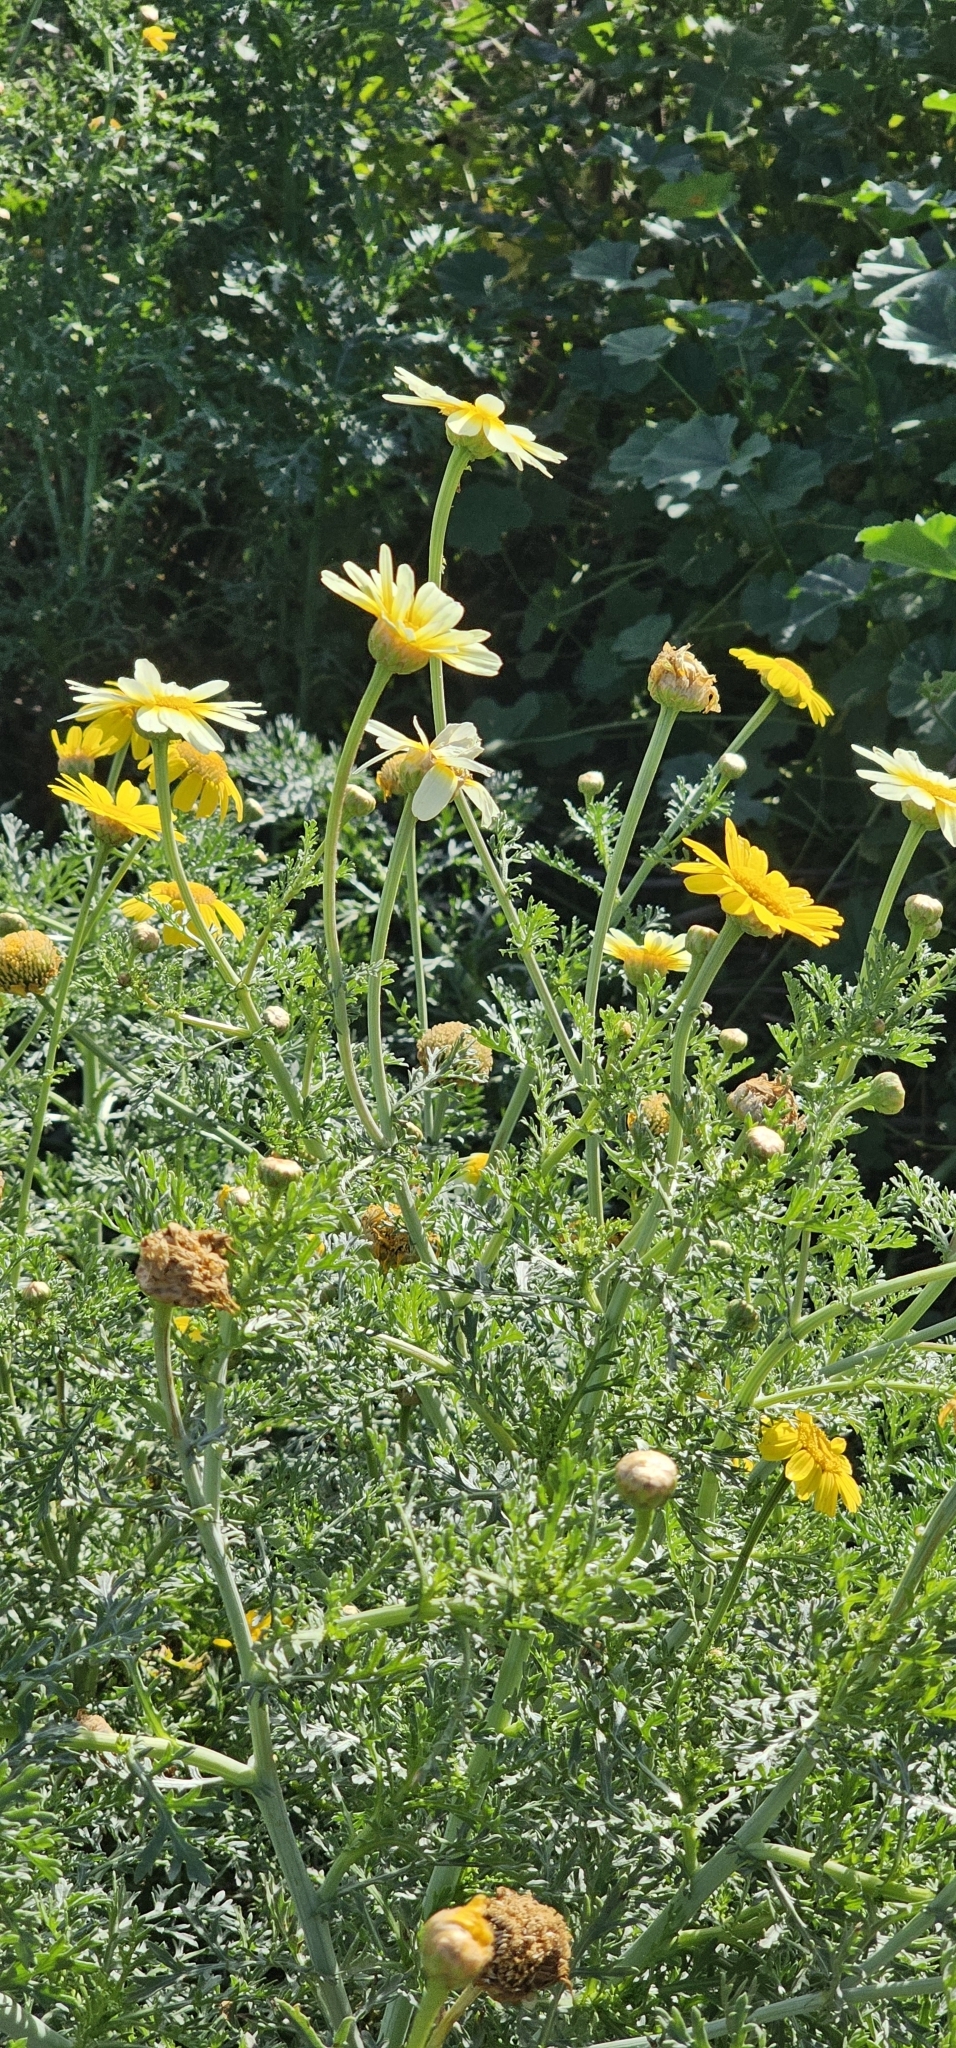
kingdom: Plantae
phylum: Tracheophyta
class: Magnoliopsida
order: Asterales
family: Asteraceae
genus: Glebionis
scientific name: Glebionis coronaria
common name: Crowndaisy
